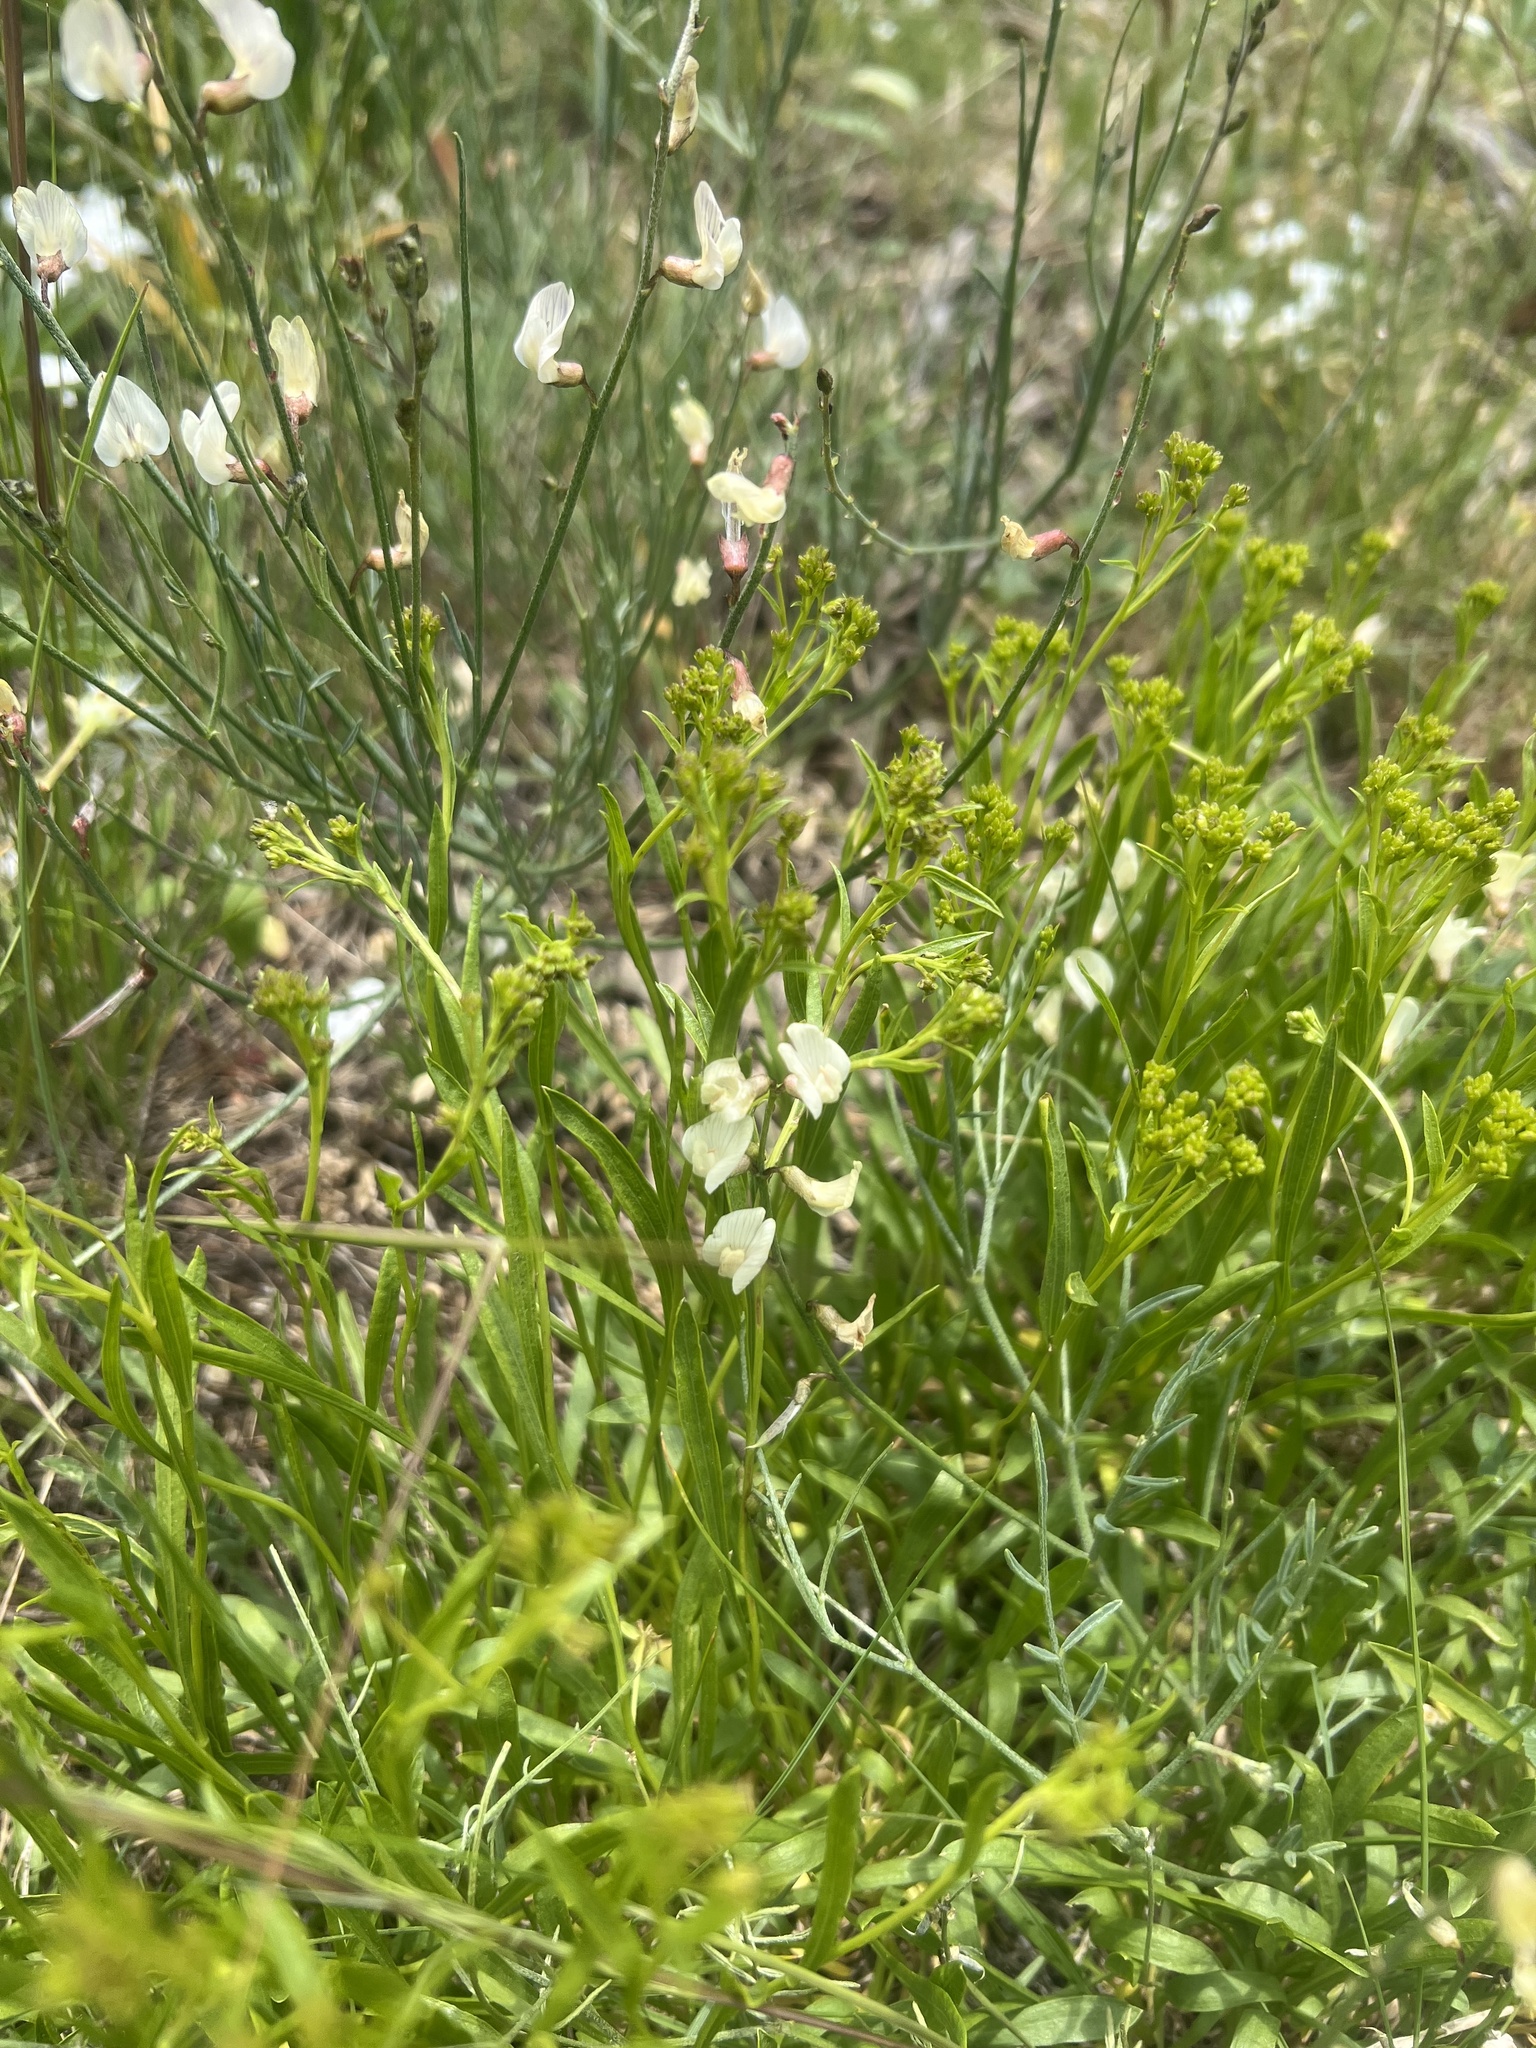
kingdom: Plantae
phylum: Tracheophyta
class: Magnoliopsida
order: Fabales
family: Fabaceae
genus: Astragalus
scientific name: Astragalus convallarius
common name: Lesser rushy milk-vetch
